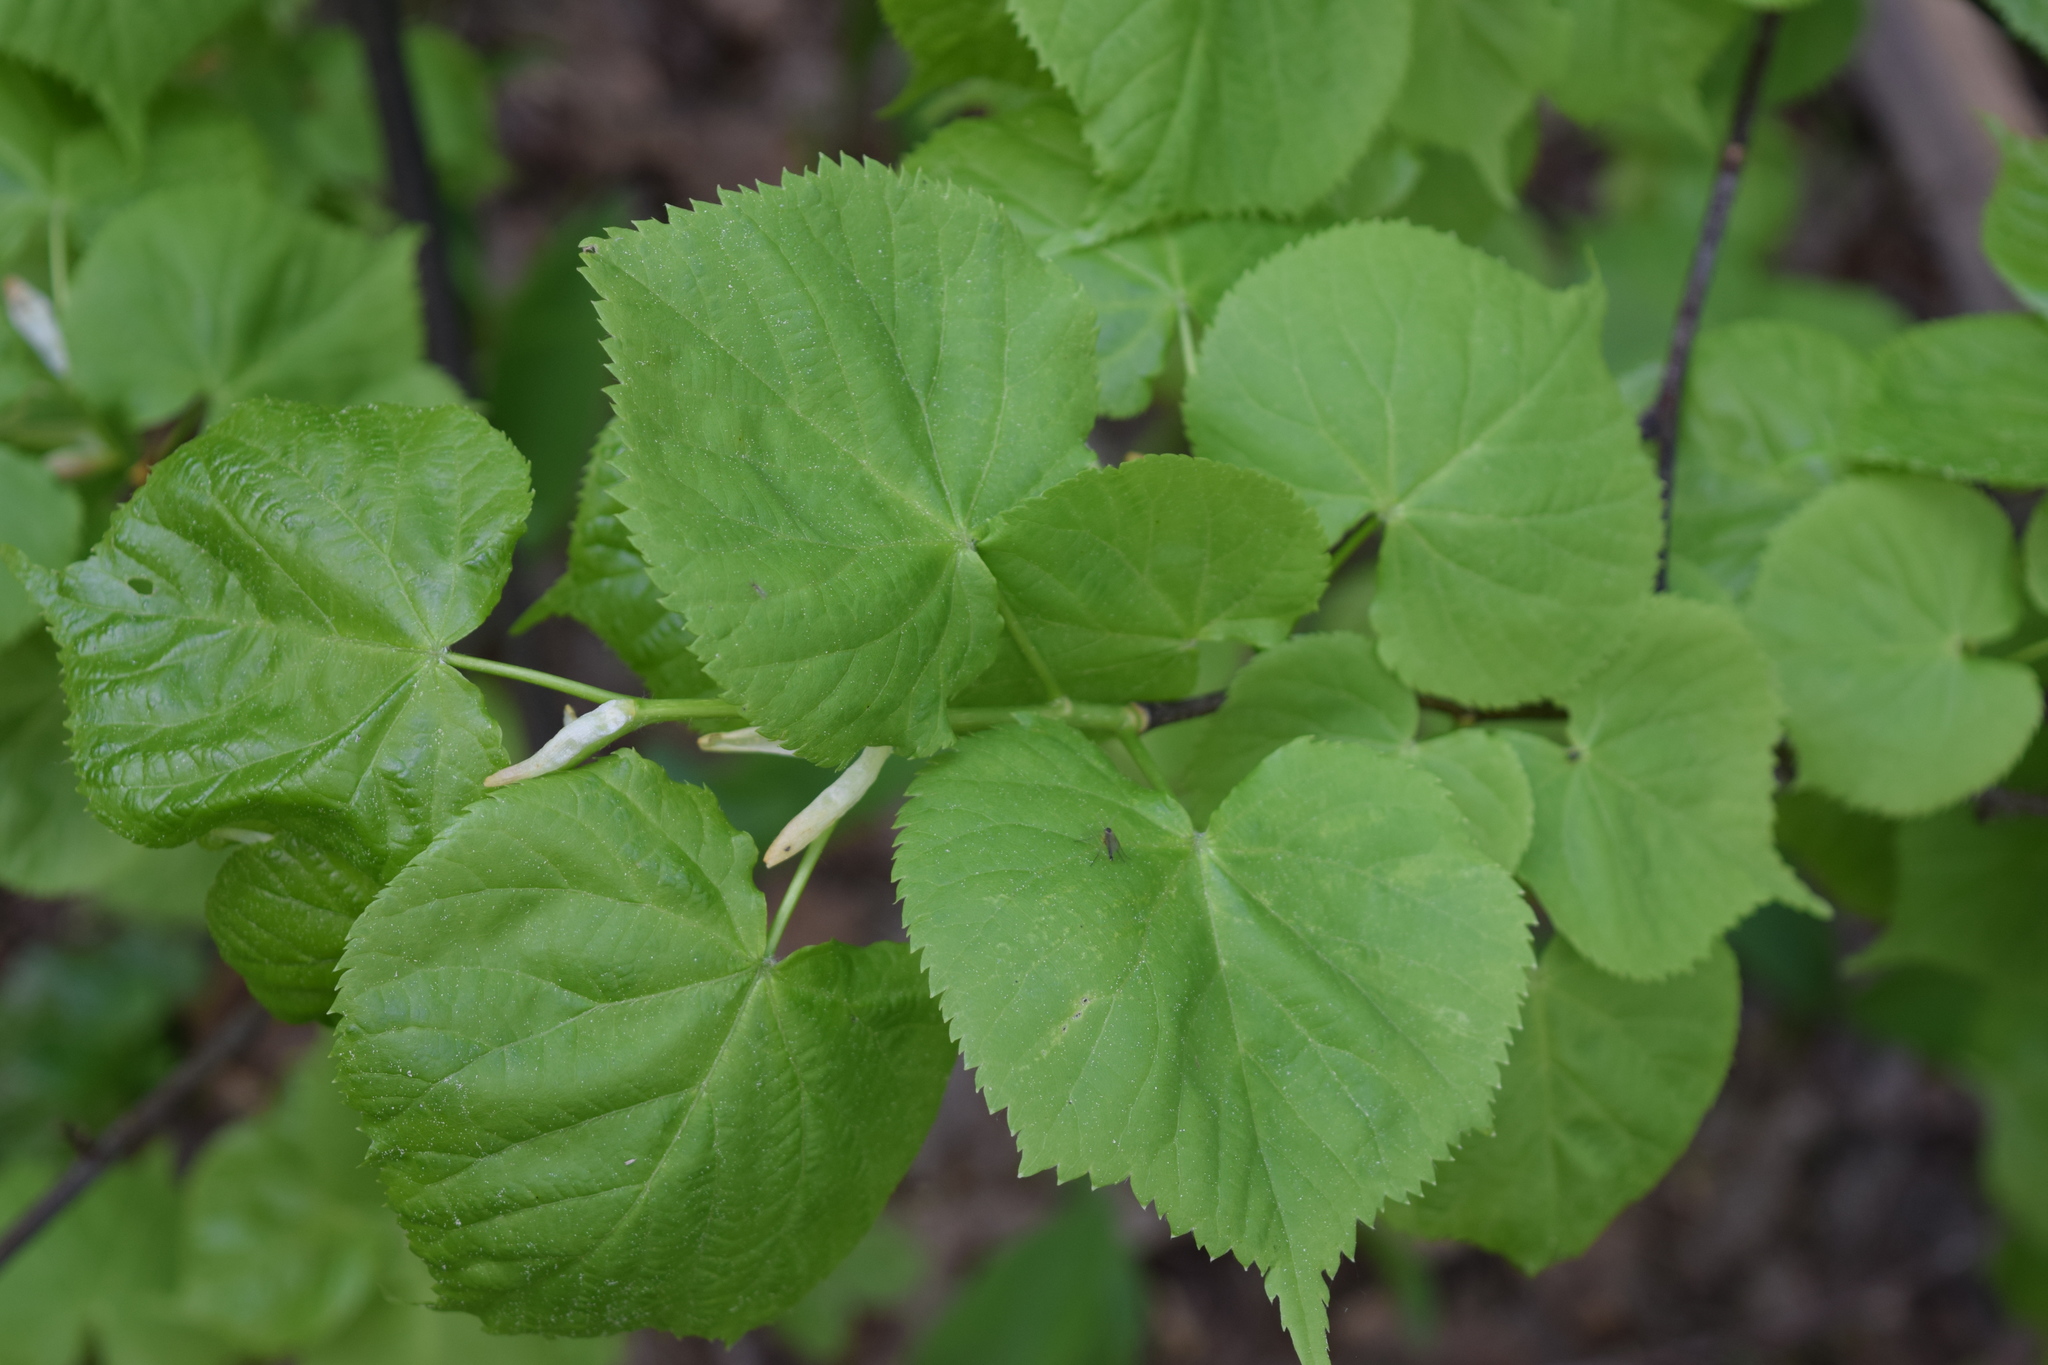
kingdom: Plantae
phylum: Tracheophyta
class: Magnoliopsida
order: Malvales
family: Malvaceae
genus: Tilia
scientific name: Tilia cordata
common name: Small-leaved lime
